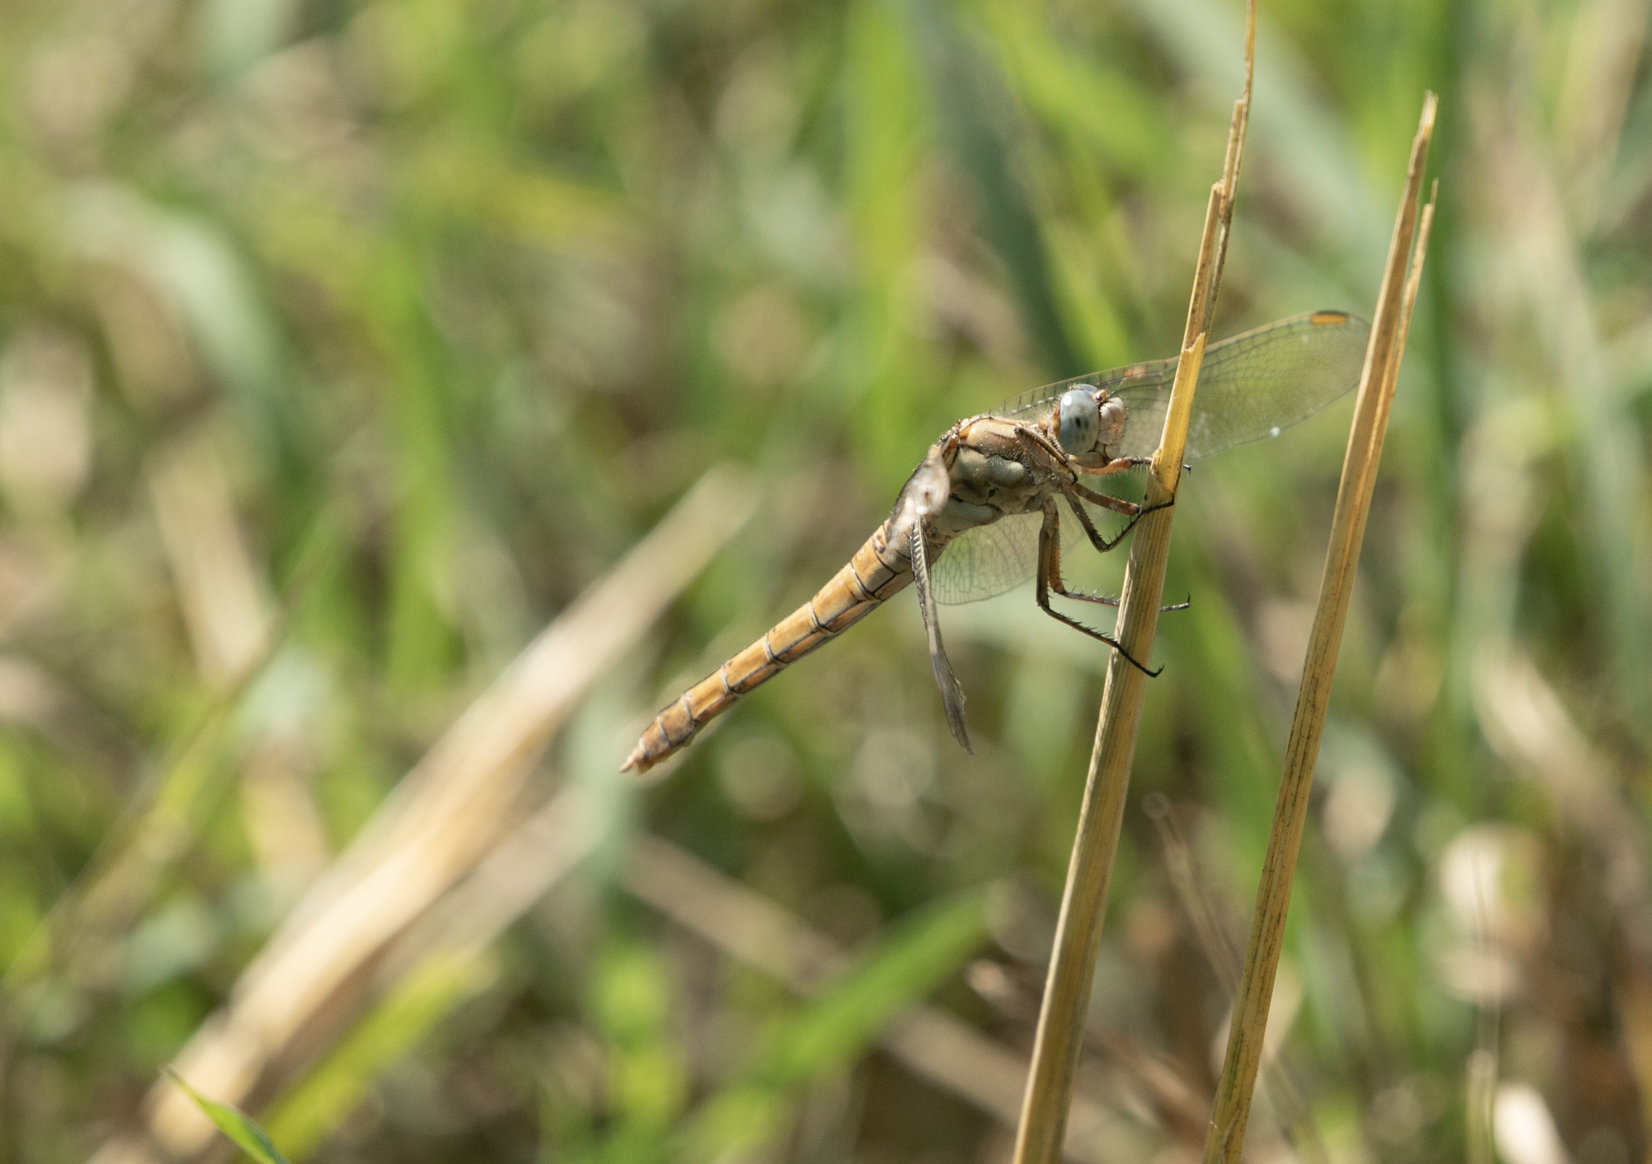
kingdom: Animalia
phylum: Arthropoda
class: Insecta
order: Odonata
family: Libellulidae
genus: Orthetrum
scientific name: Orthetrum brunneum
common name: Southern skimmer
